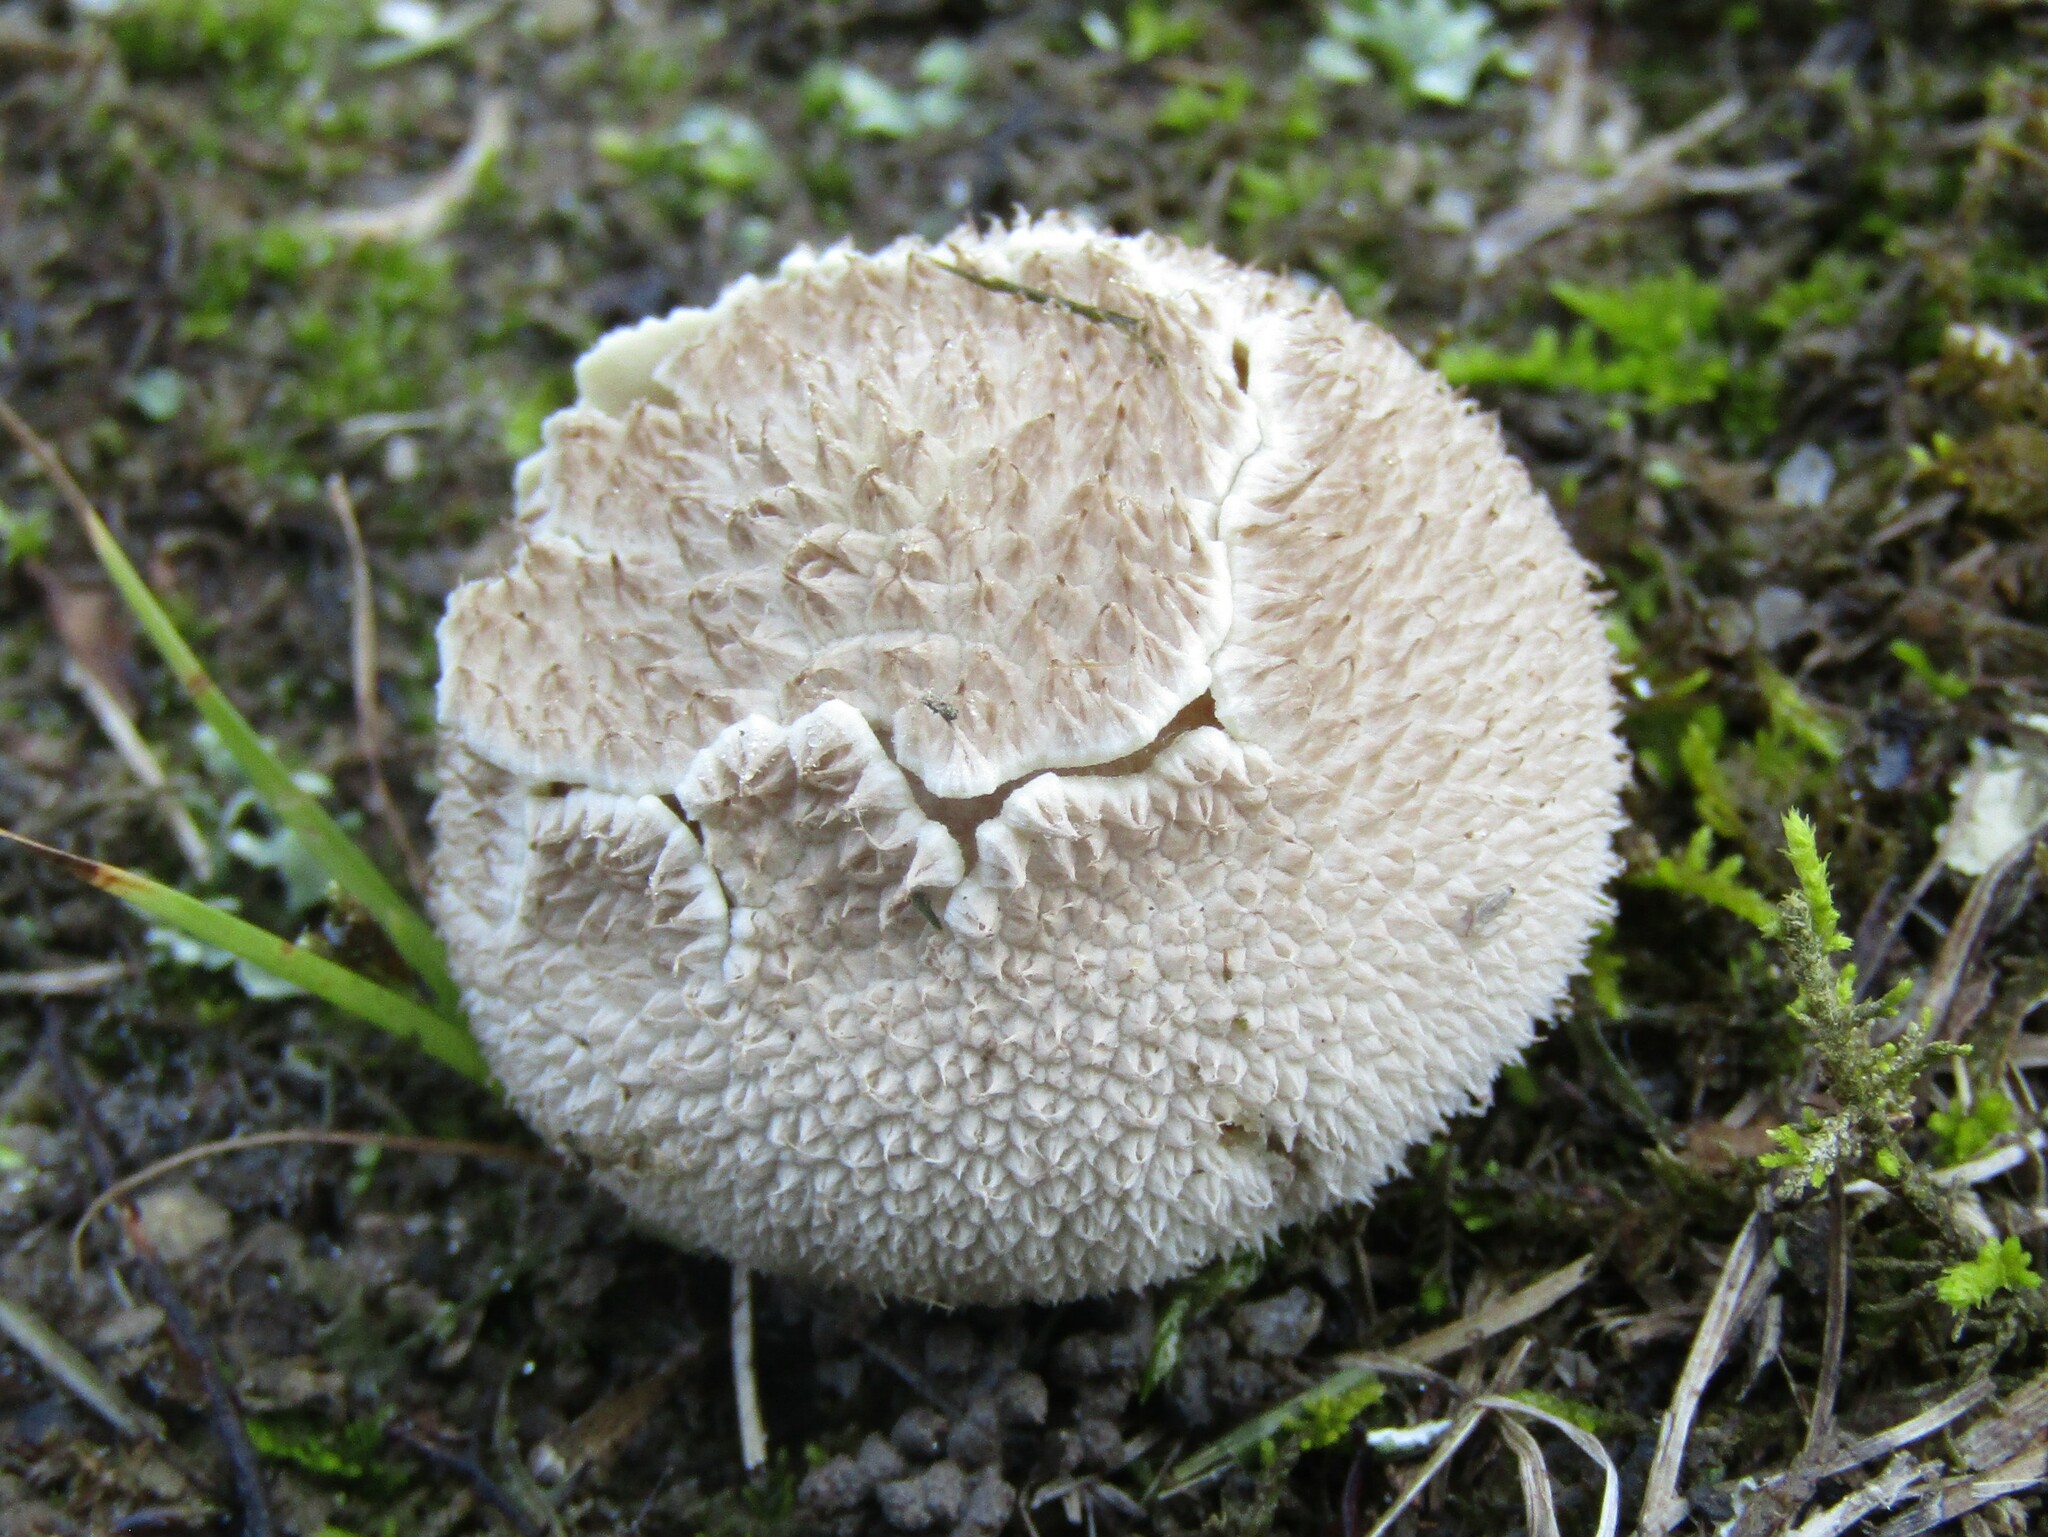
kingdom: Fungi
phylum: Basidiomycota
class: Agaricomycetes
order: Agaricales
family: Agaricaceae
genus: Lycoperdon
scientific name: Lycoperdon marginatum
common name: Peeling puffball
